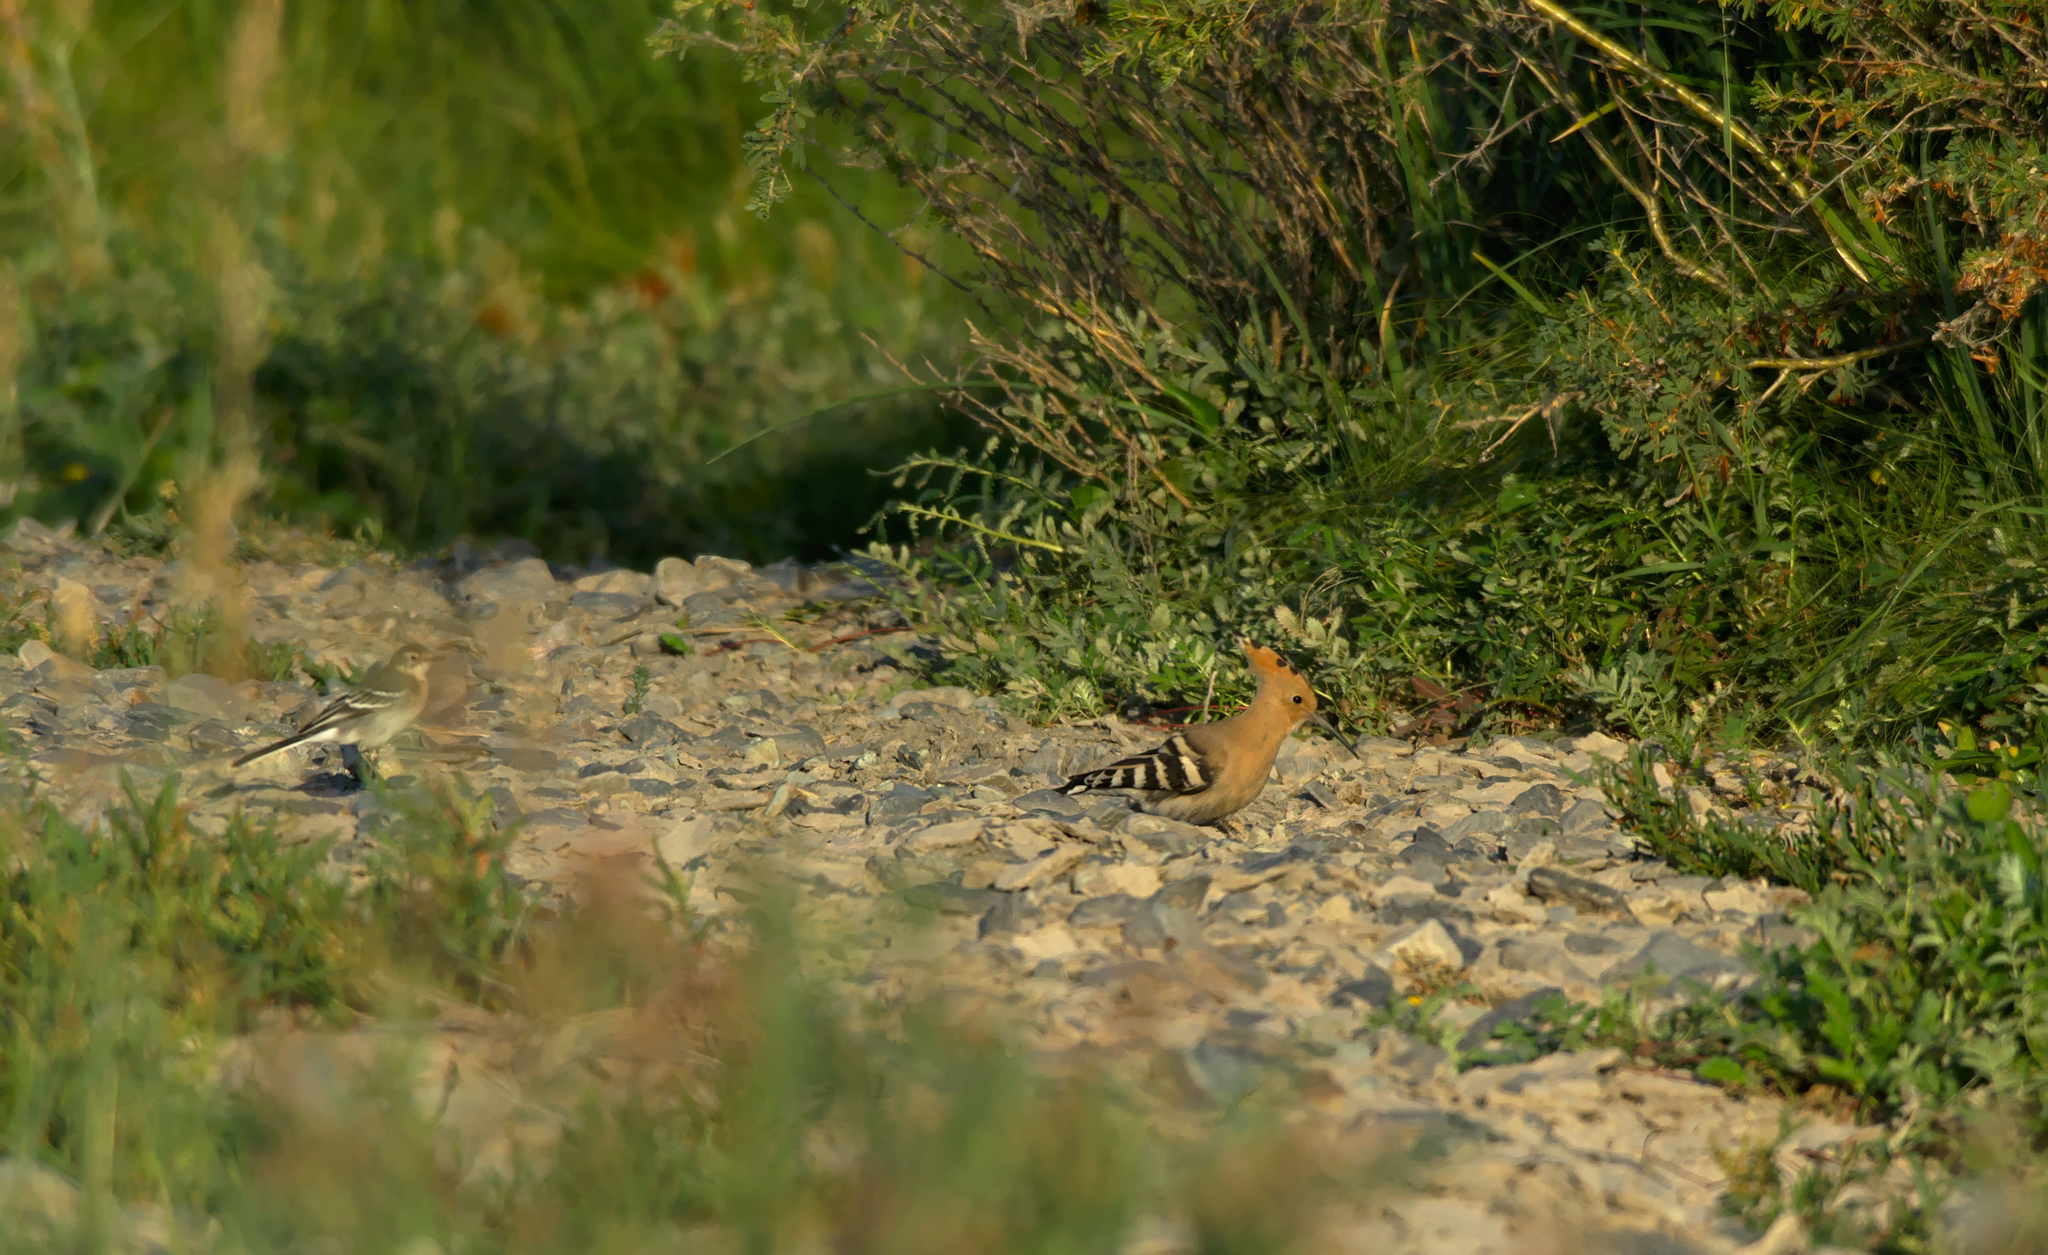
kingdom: Animalia
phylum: Chordata
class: Aves
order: Bucerotiformes
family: Upupidae
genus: Upupa
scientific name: Upupa epops
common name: Eurasian hoopoe
